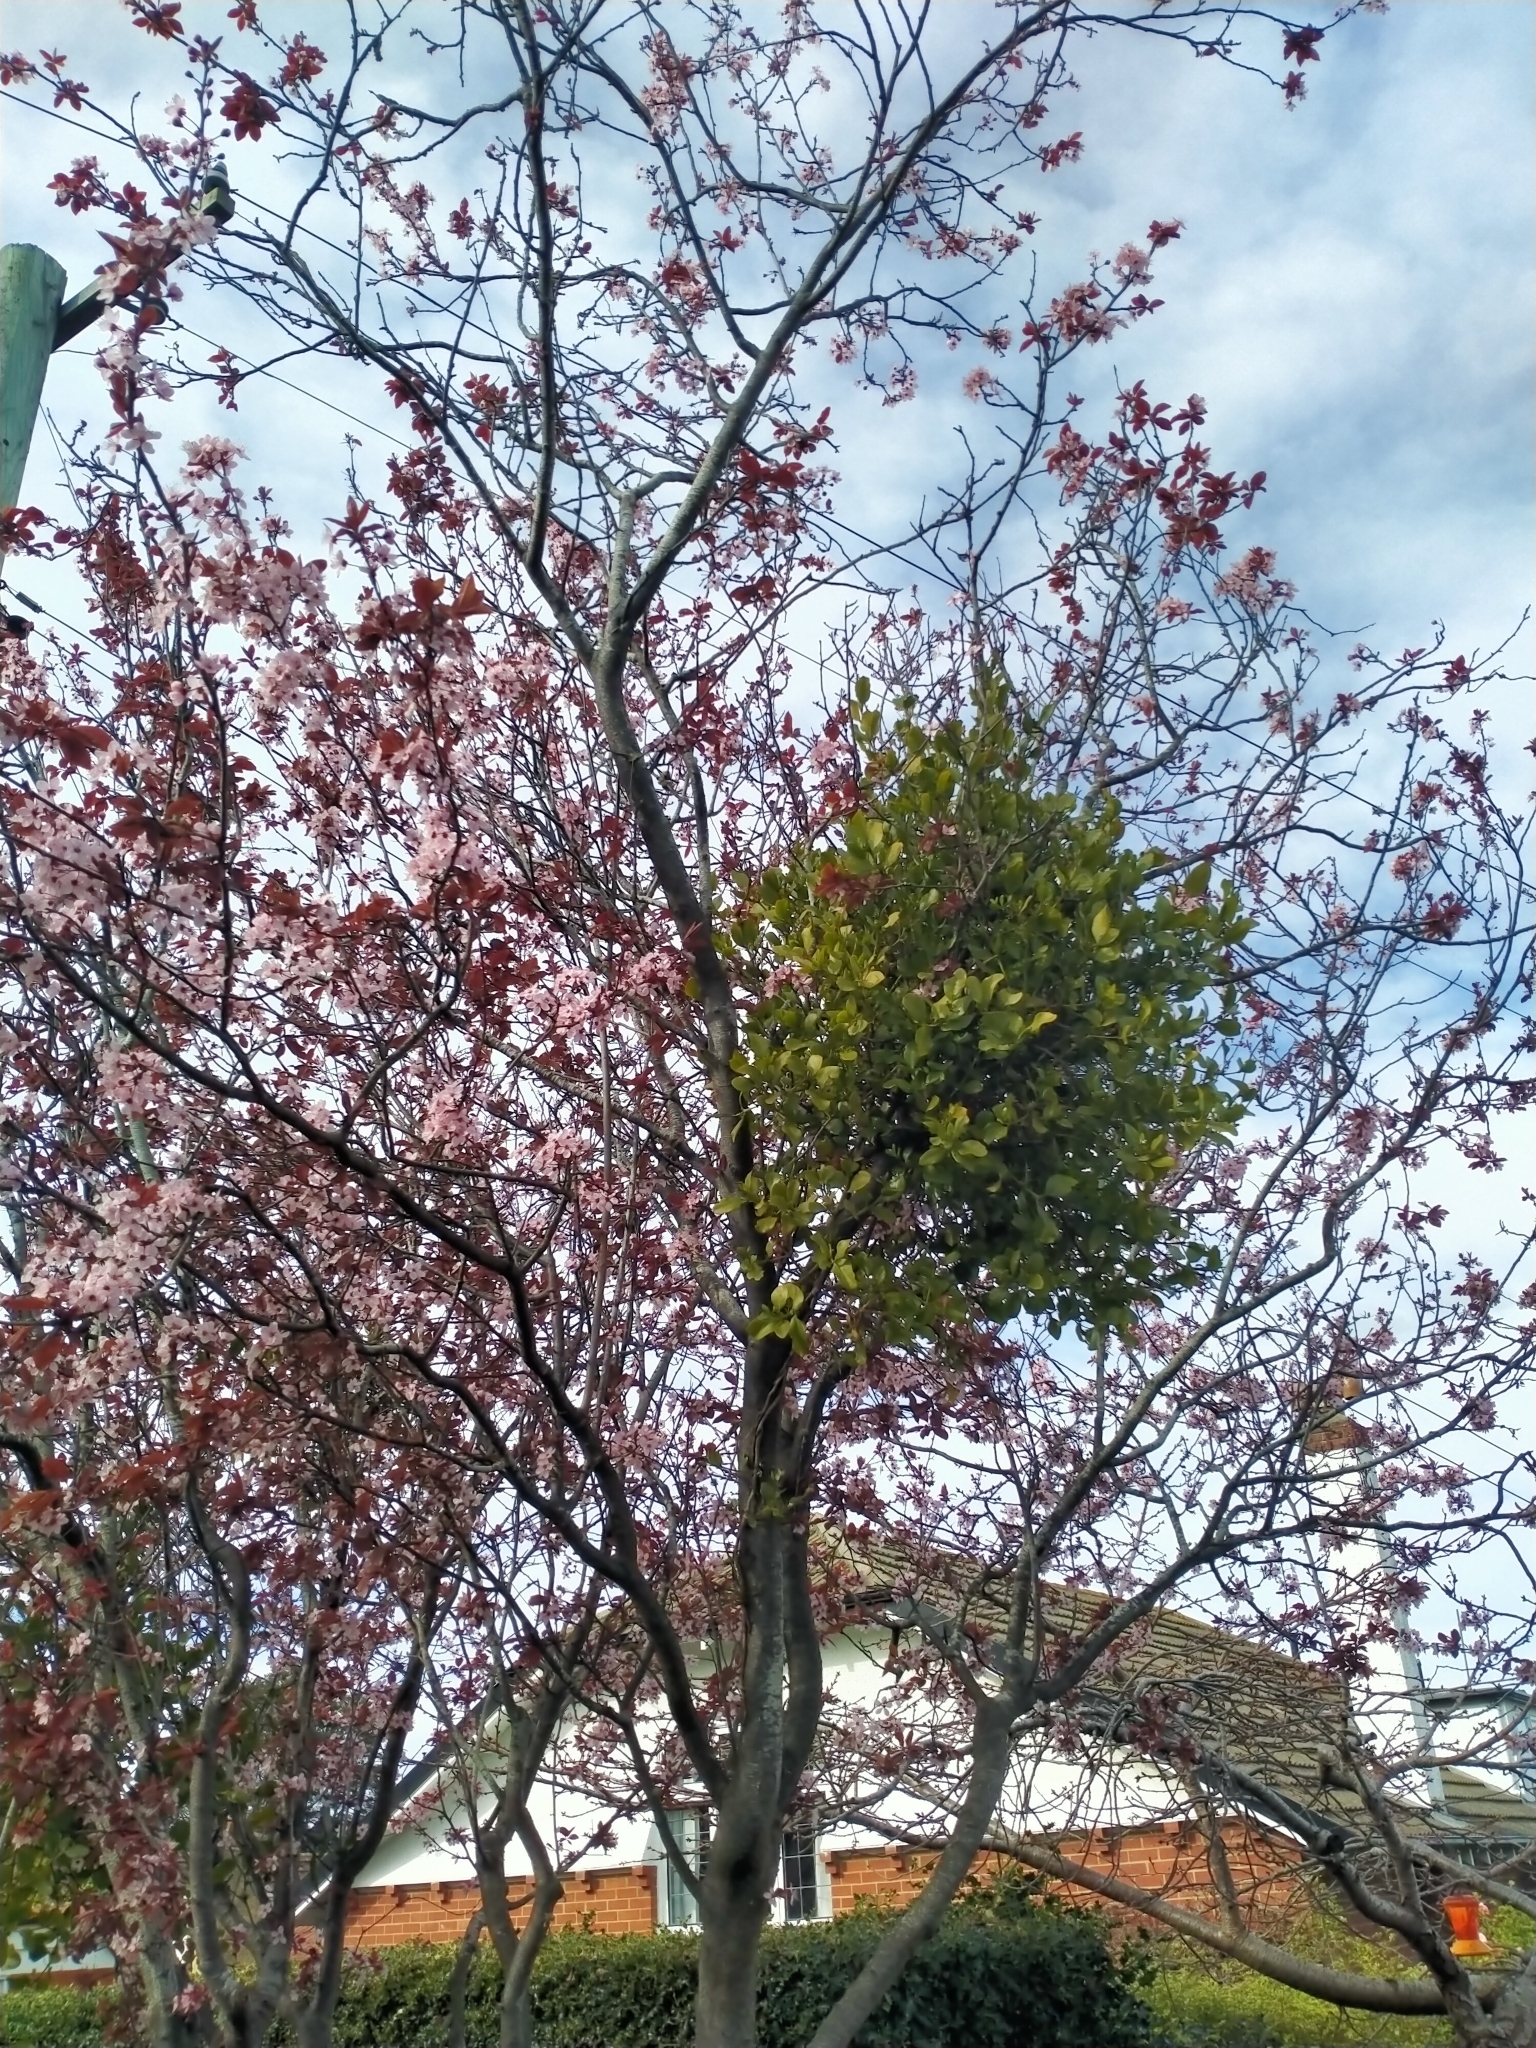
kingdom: Plantae
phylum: Tracheophyta
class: Magnoliopsida
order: Santalales
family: Loranthaceae
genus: Ileostylus
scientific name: Ileostylus micranthus
